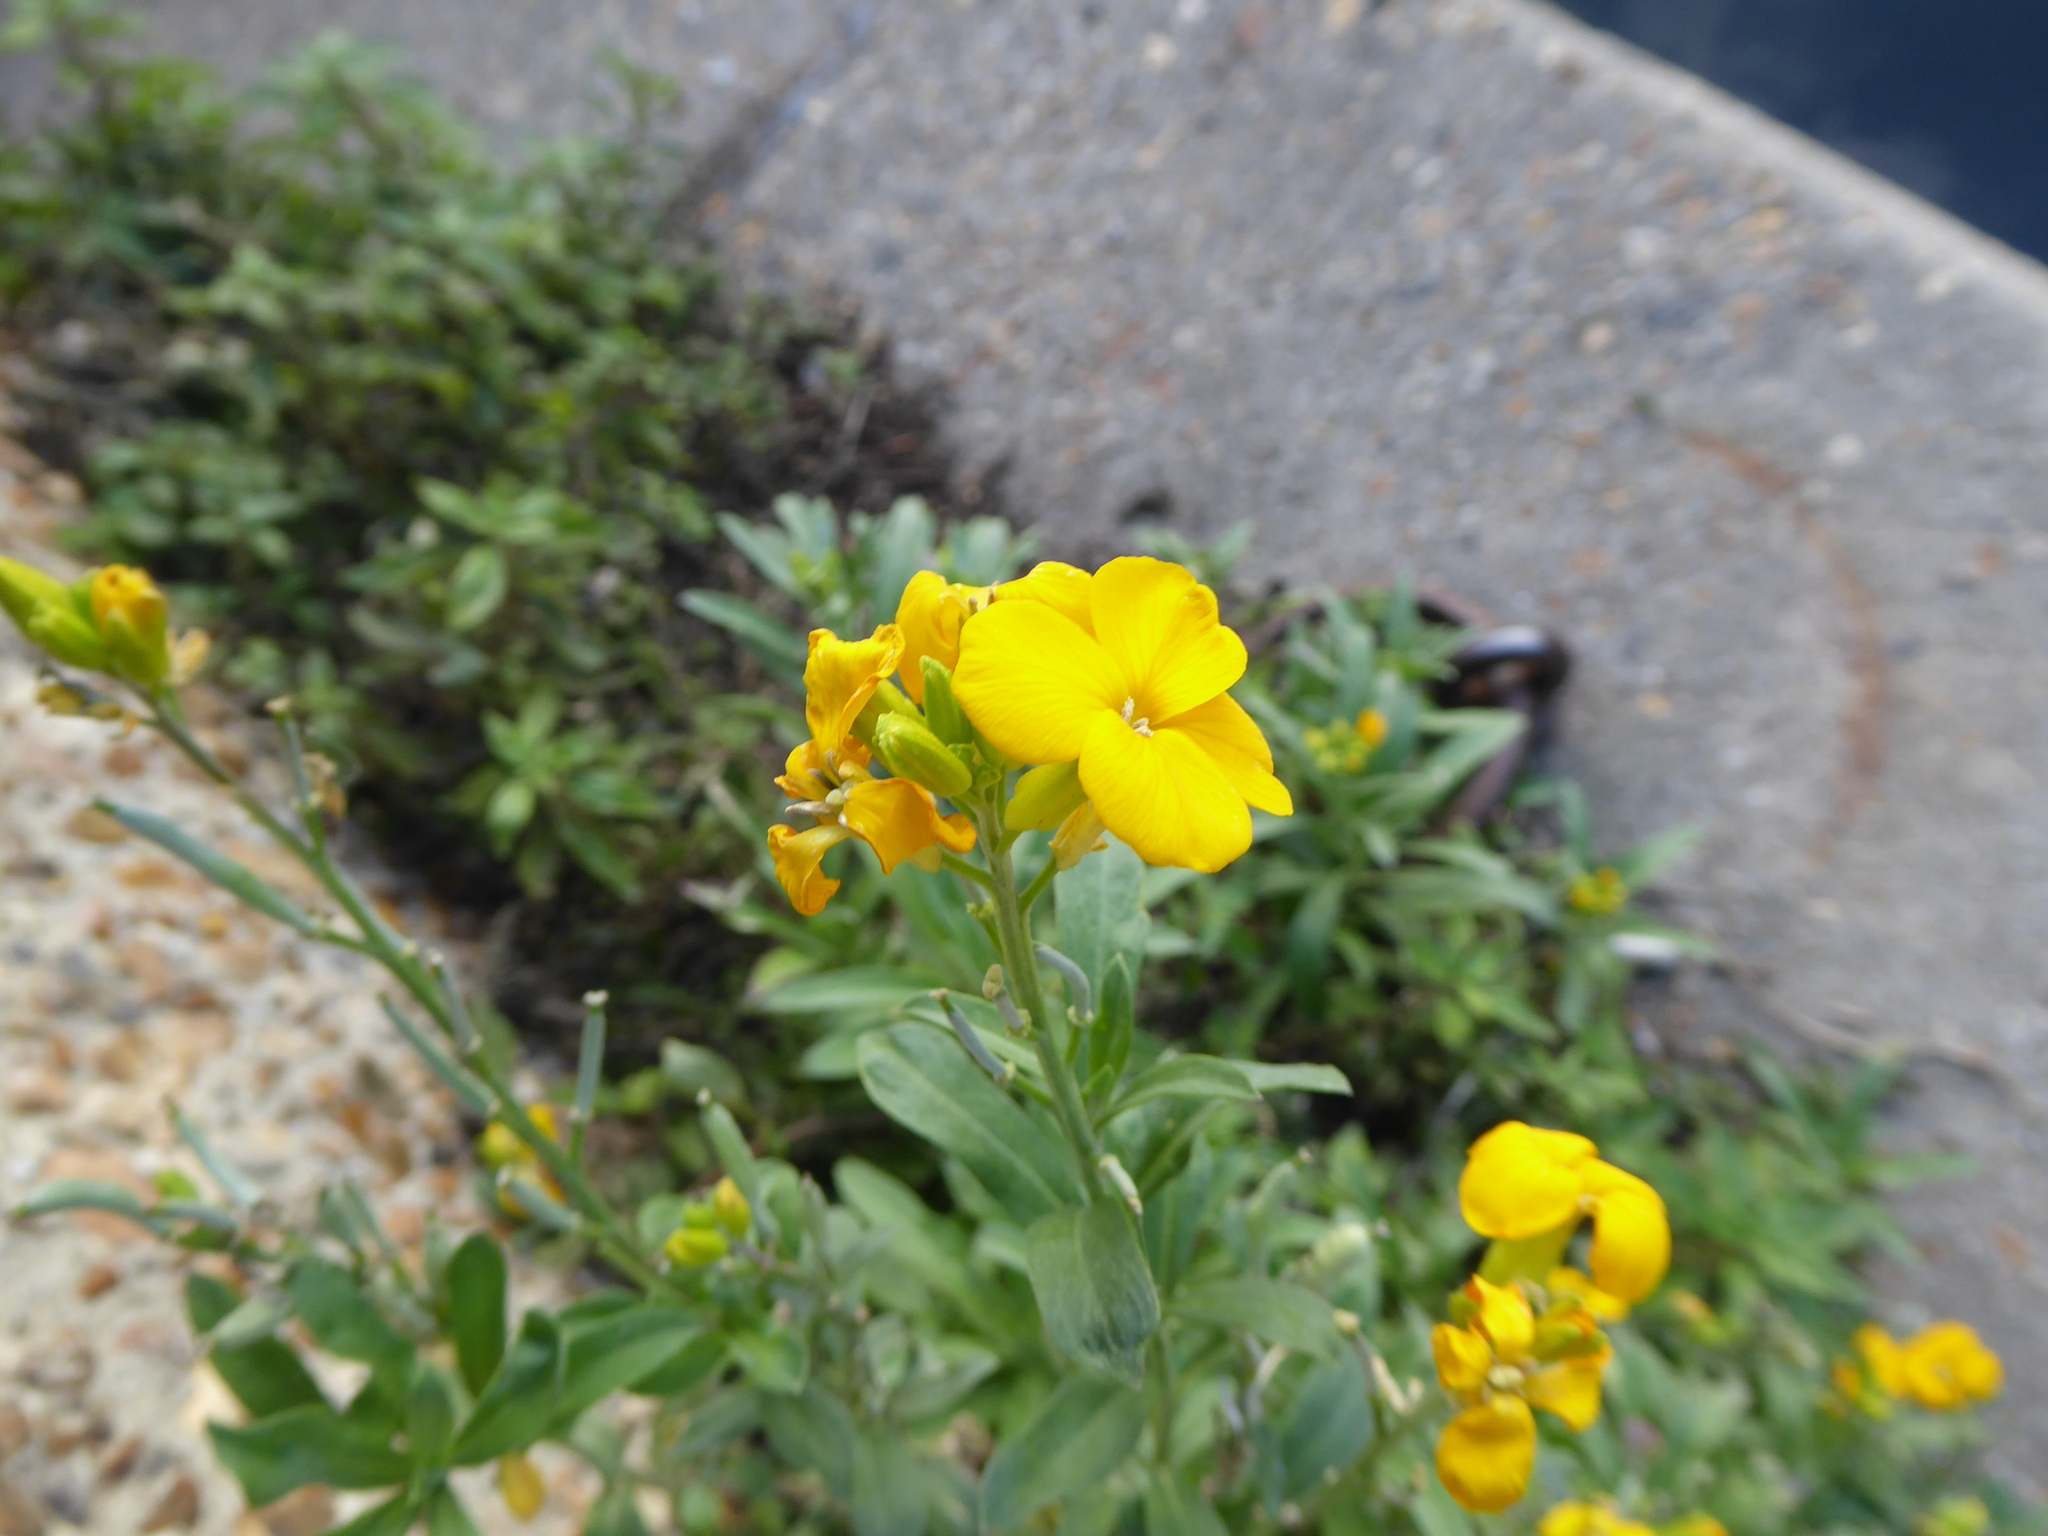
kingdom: Plantae
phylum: Tracheophyta
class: Magnoliopsida
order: Brassicales
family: Brassicaceae
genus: Erysimum
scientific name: Erysimum
